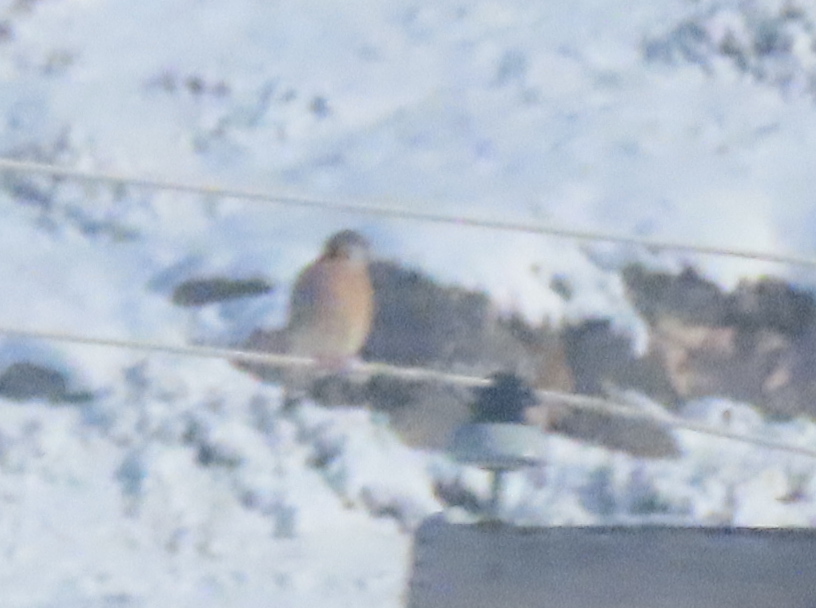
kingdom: Animalia
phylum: Chordata
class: Aves
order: Falconiformes
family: Falconidae
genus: Falco
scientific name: Falco sparverius
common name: American kestrel
